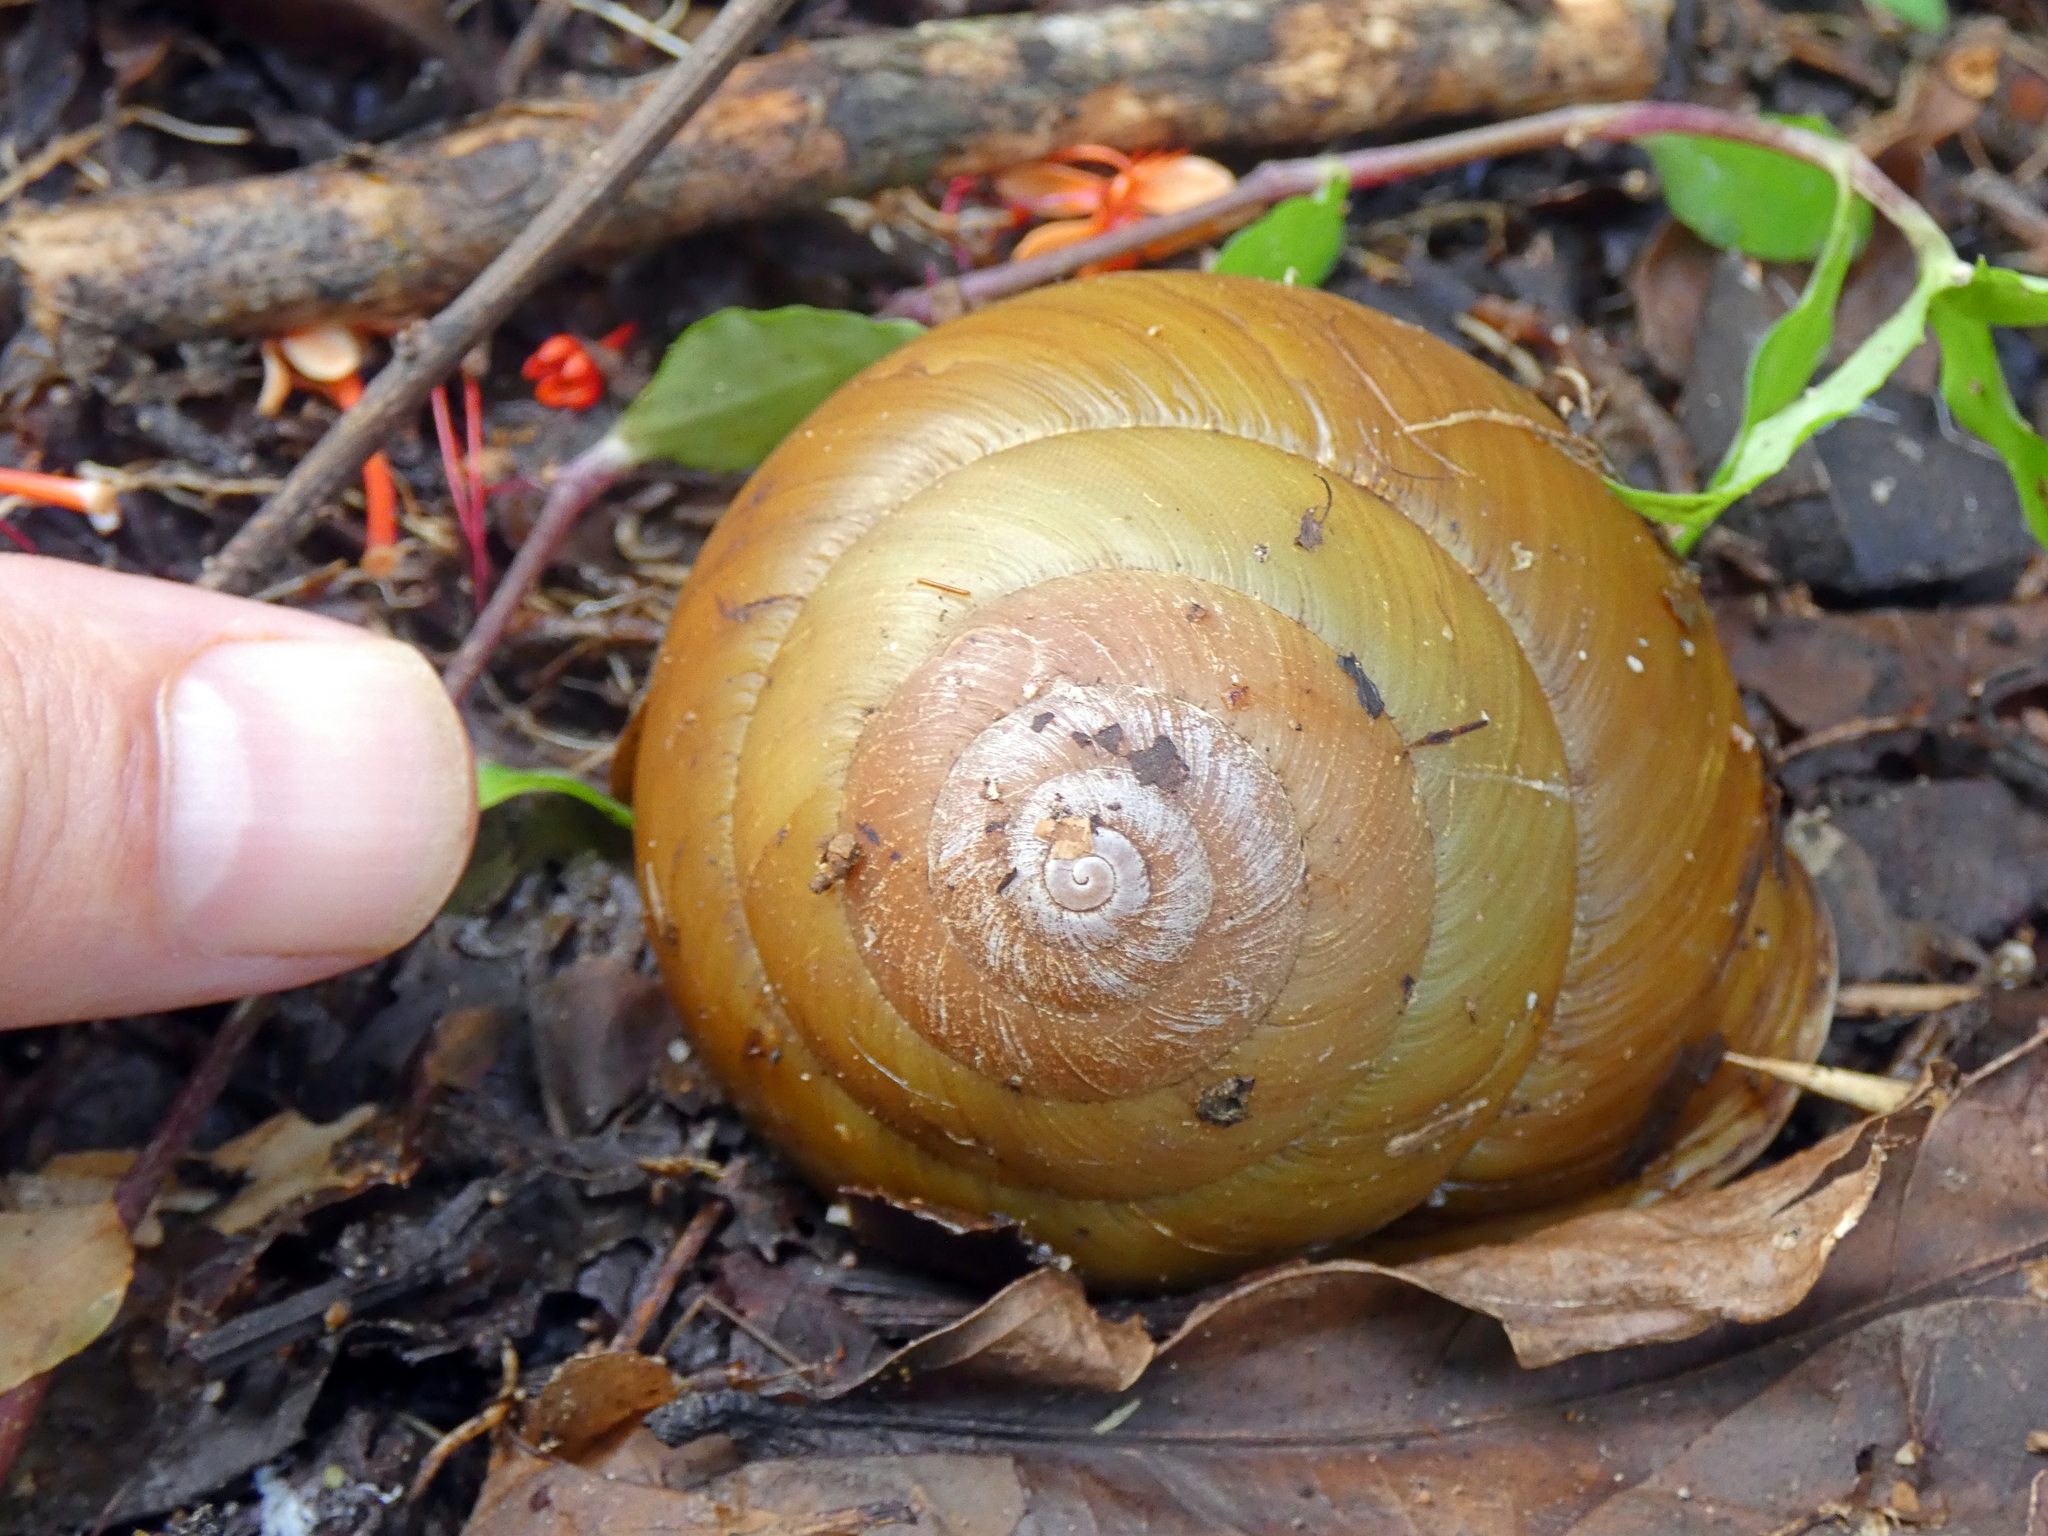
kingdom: Animalia
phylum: Mollusca
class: Gastropoda
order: Stylommatophora
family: Camaenidae
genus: Hadra
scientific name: Hadra bipartita
